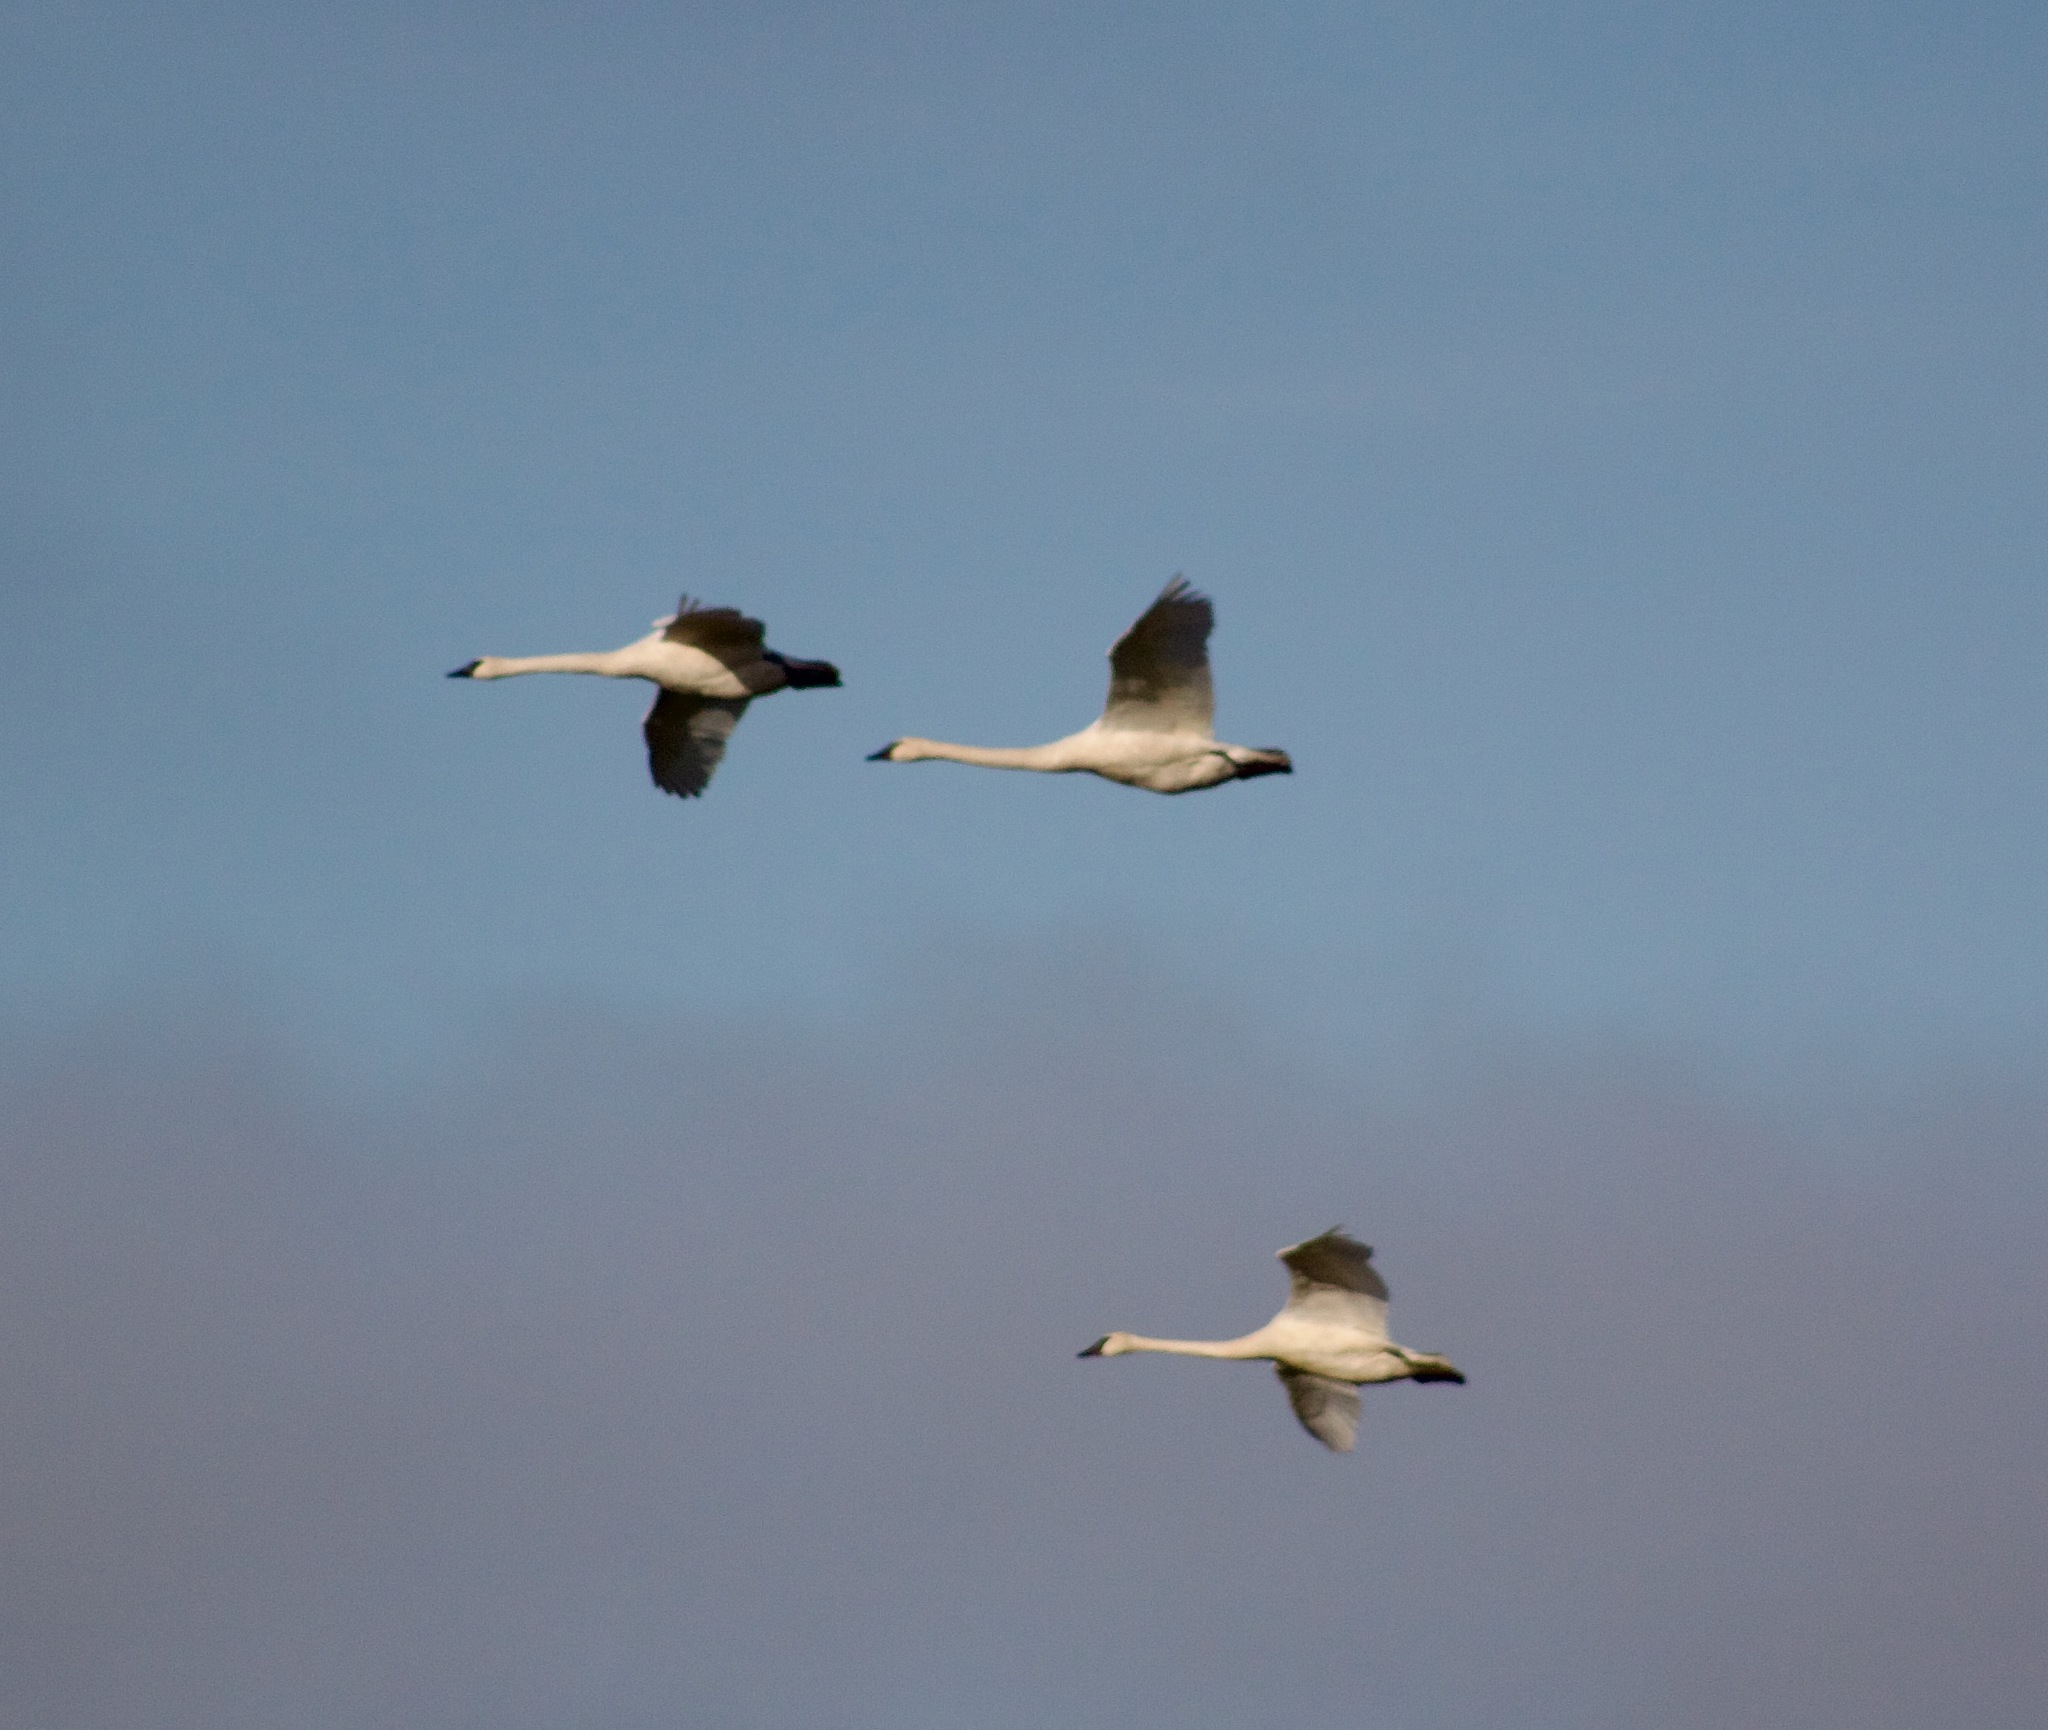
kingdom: Animalia
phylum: Chordata
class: Aves
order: Anseriformes
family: Anatidae
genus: Cygnus
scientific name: Cygnus buccinator
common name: Trumpeter swan
